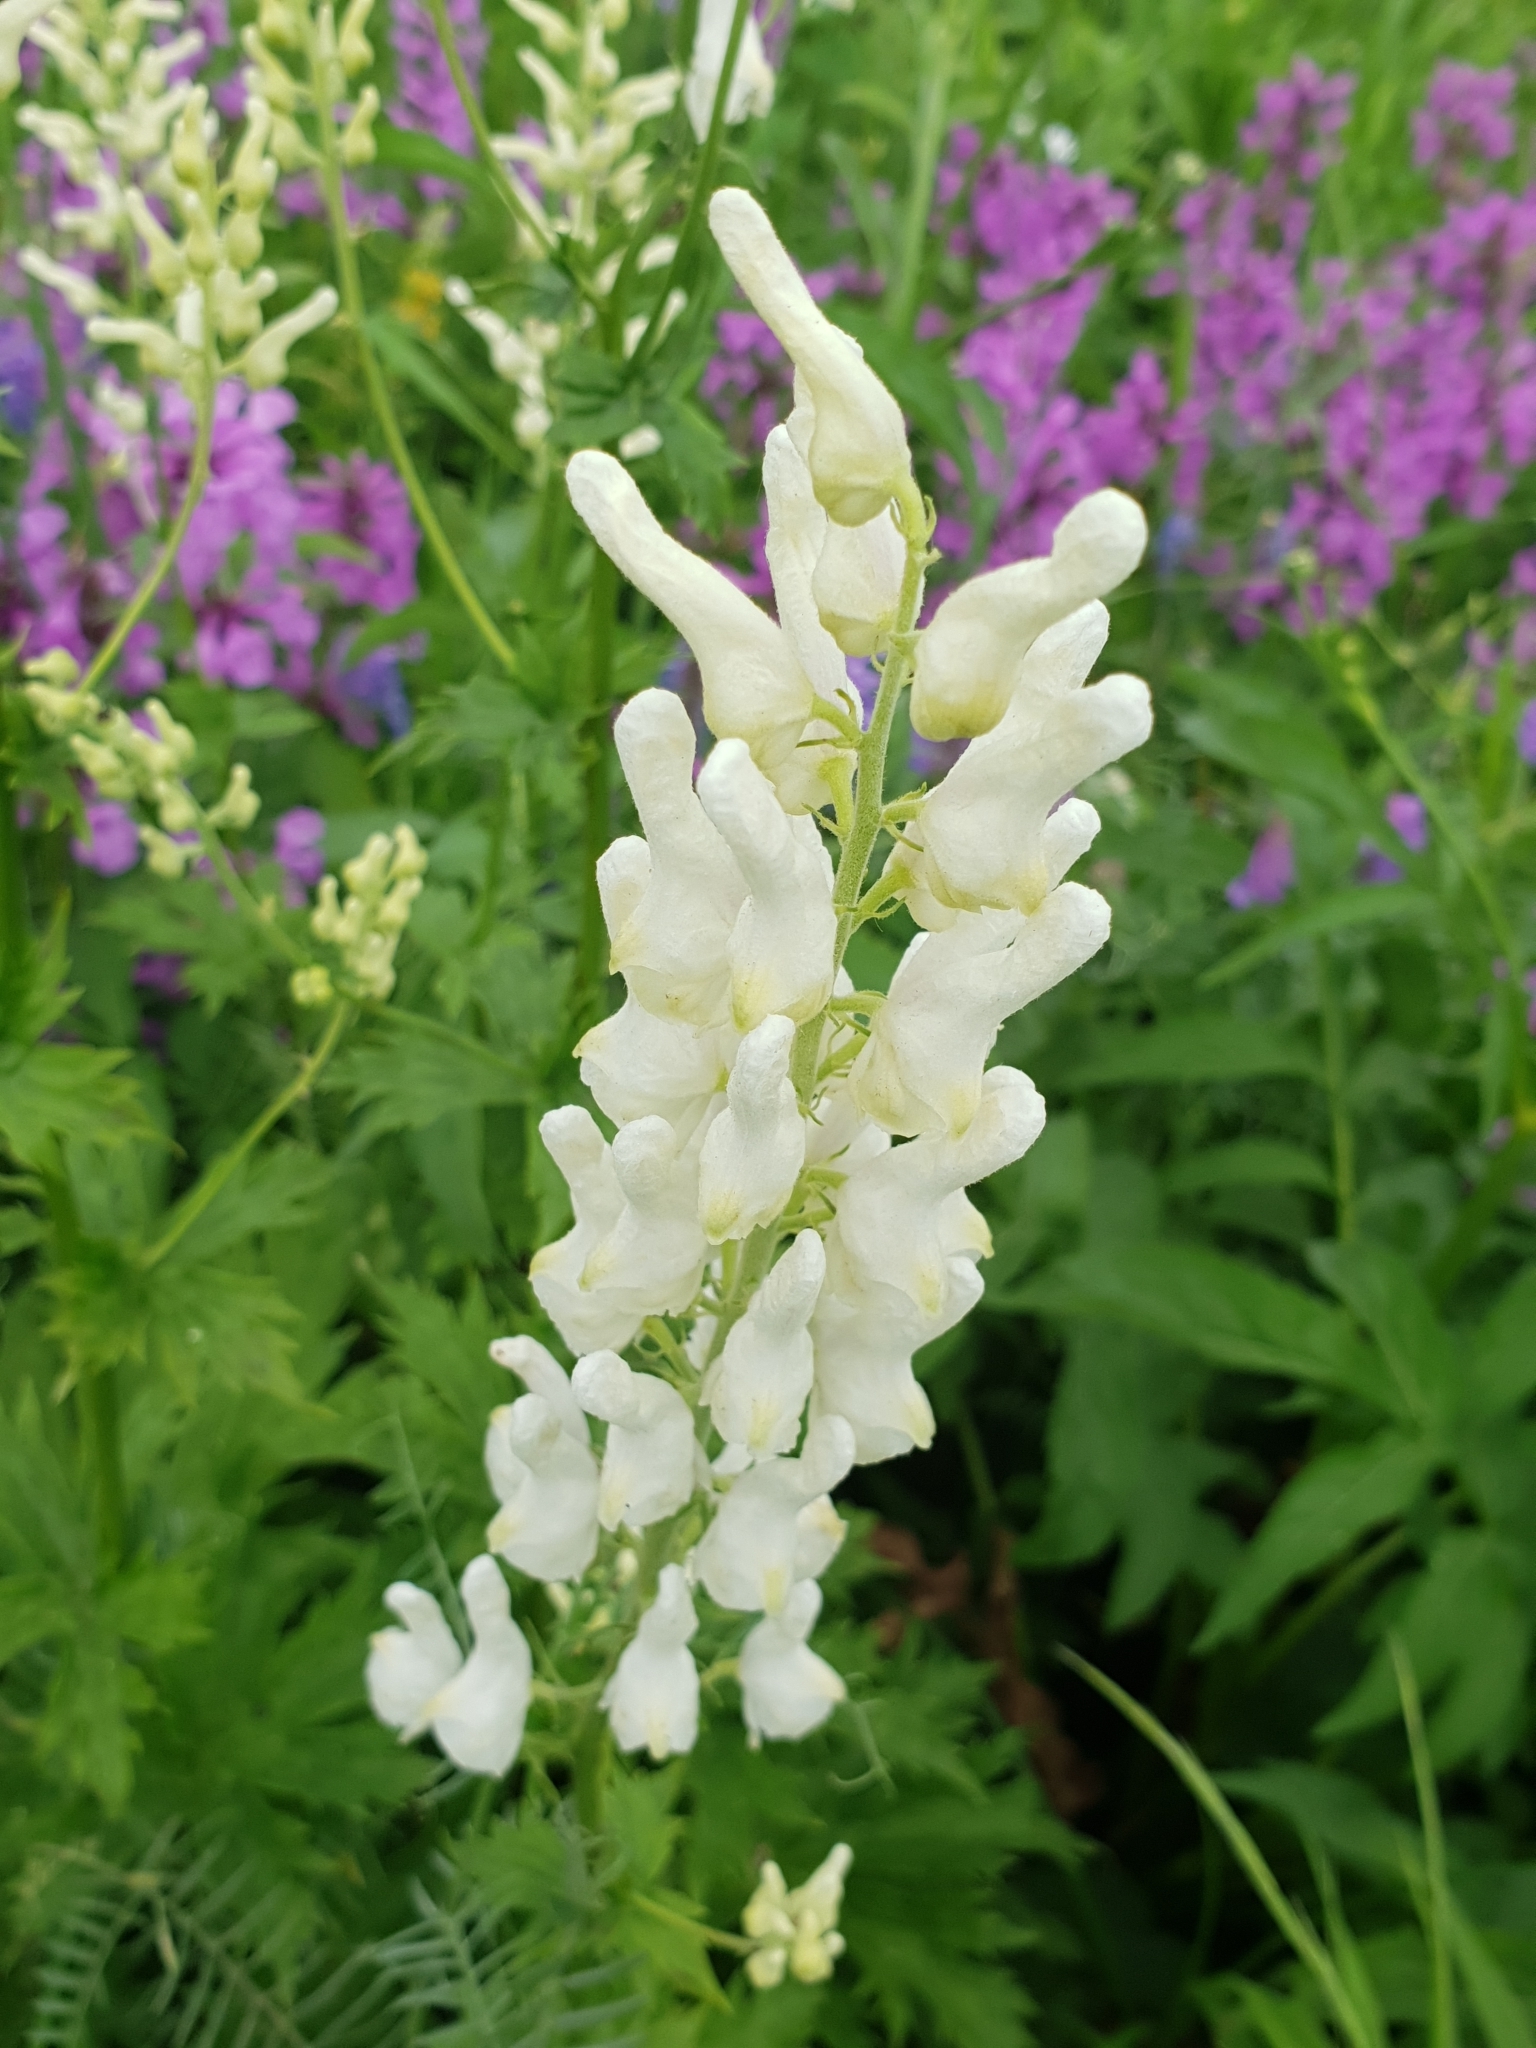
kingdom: Plantae
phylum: Tracheophyta
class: Magnoliopsida
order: Ranunculales
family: Ranunculaceae
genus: Aconitum
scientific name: Aconitum orientale
